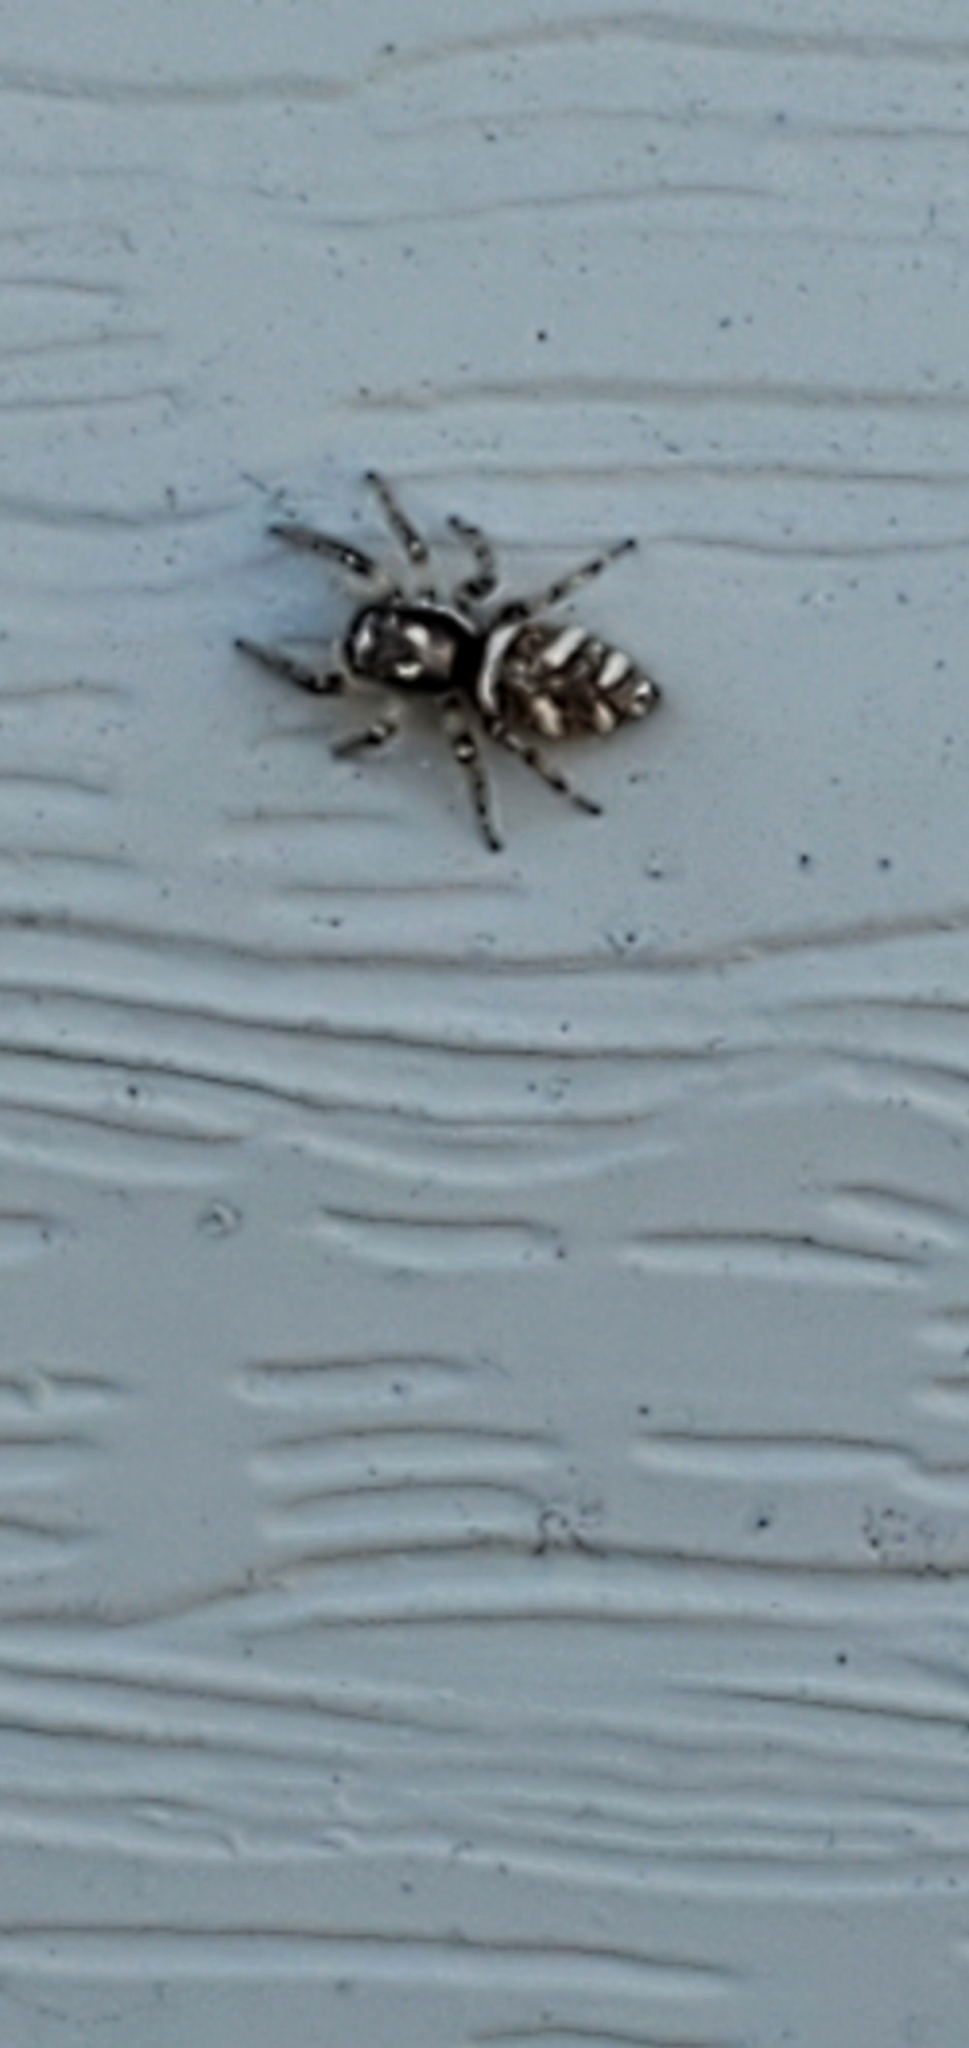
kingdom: Animalia
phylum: Arthropoda
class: Arachnida
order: Araneae
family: Salticidae
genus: Salticus
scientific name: Salticus scenicus
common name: Zebra jumper
